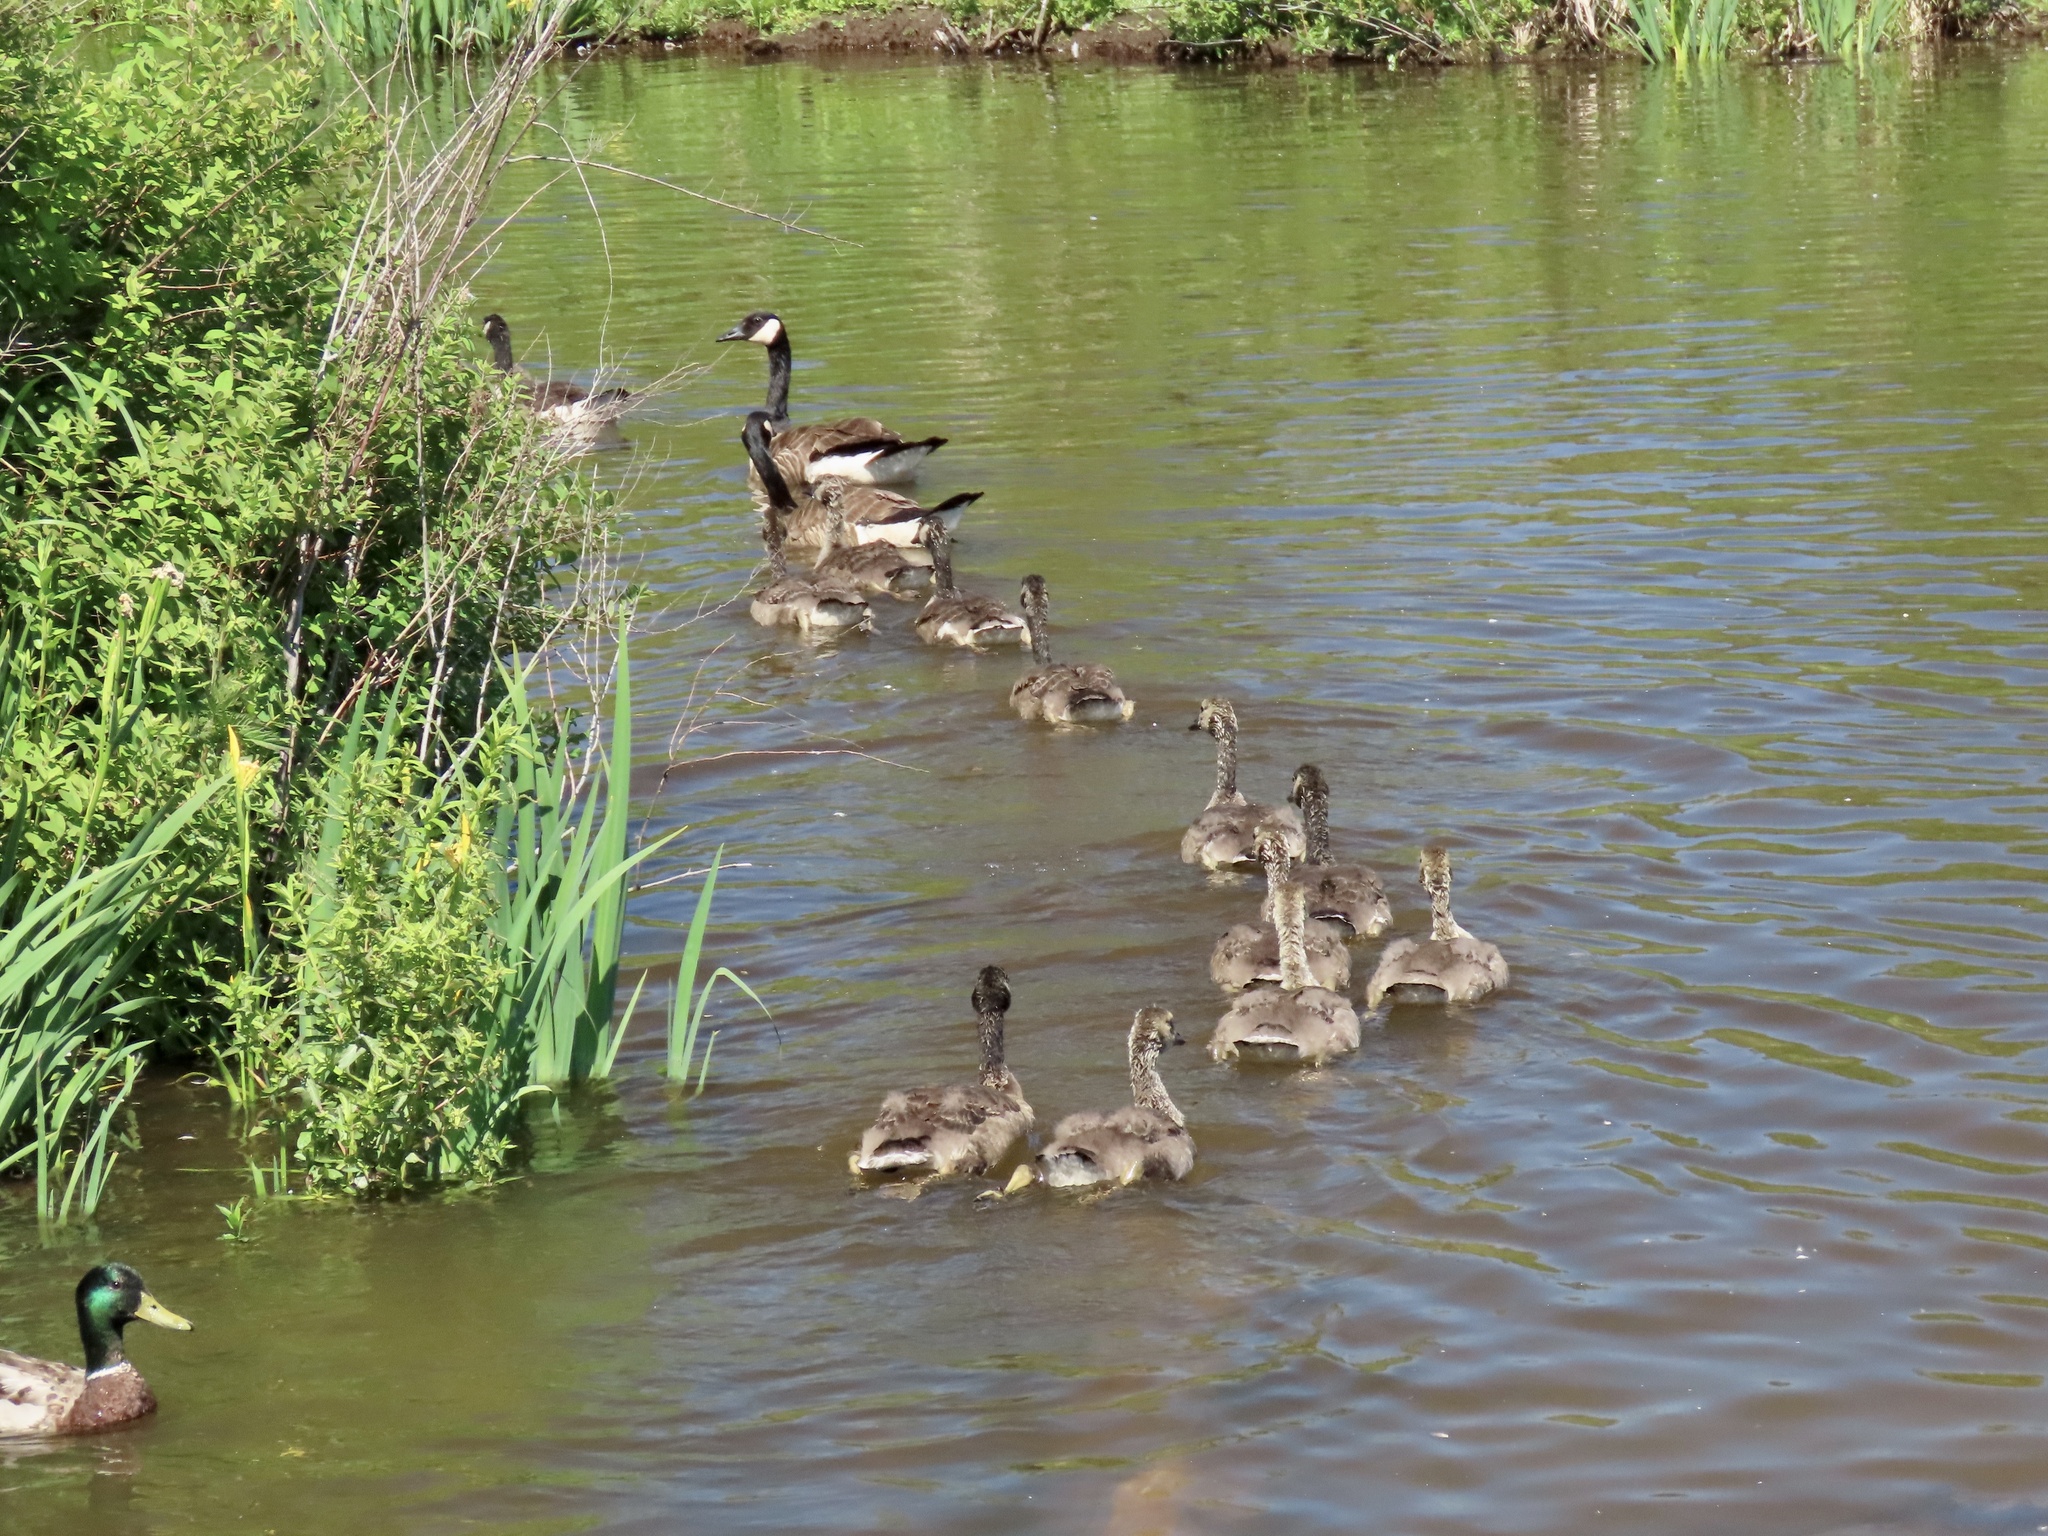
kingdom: Animalia
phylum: Chordata
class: Aves
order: Anseriformes
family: Anatidae
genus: Branta
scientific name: Branta canadensis
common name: Canada goose
